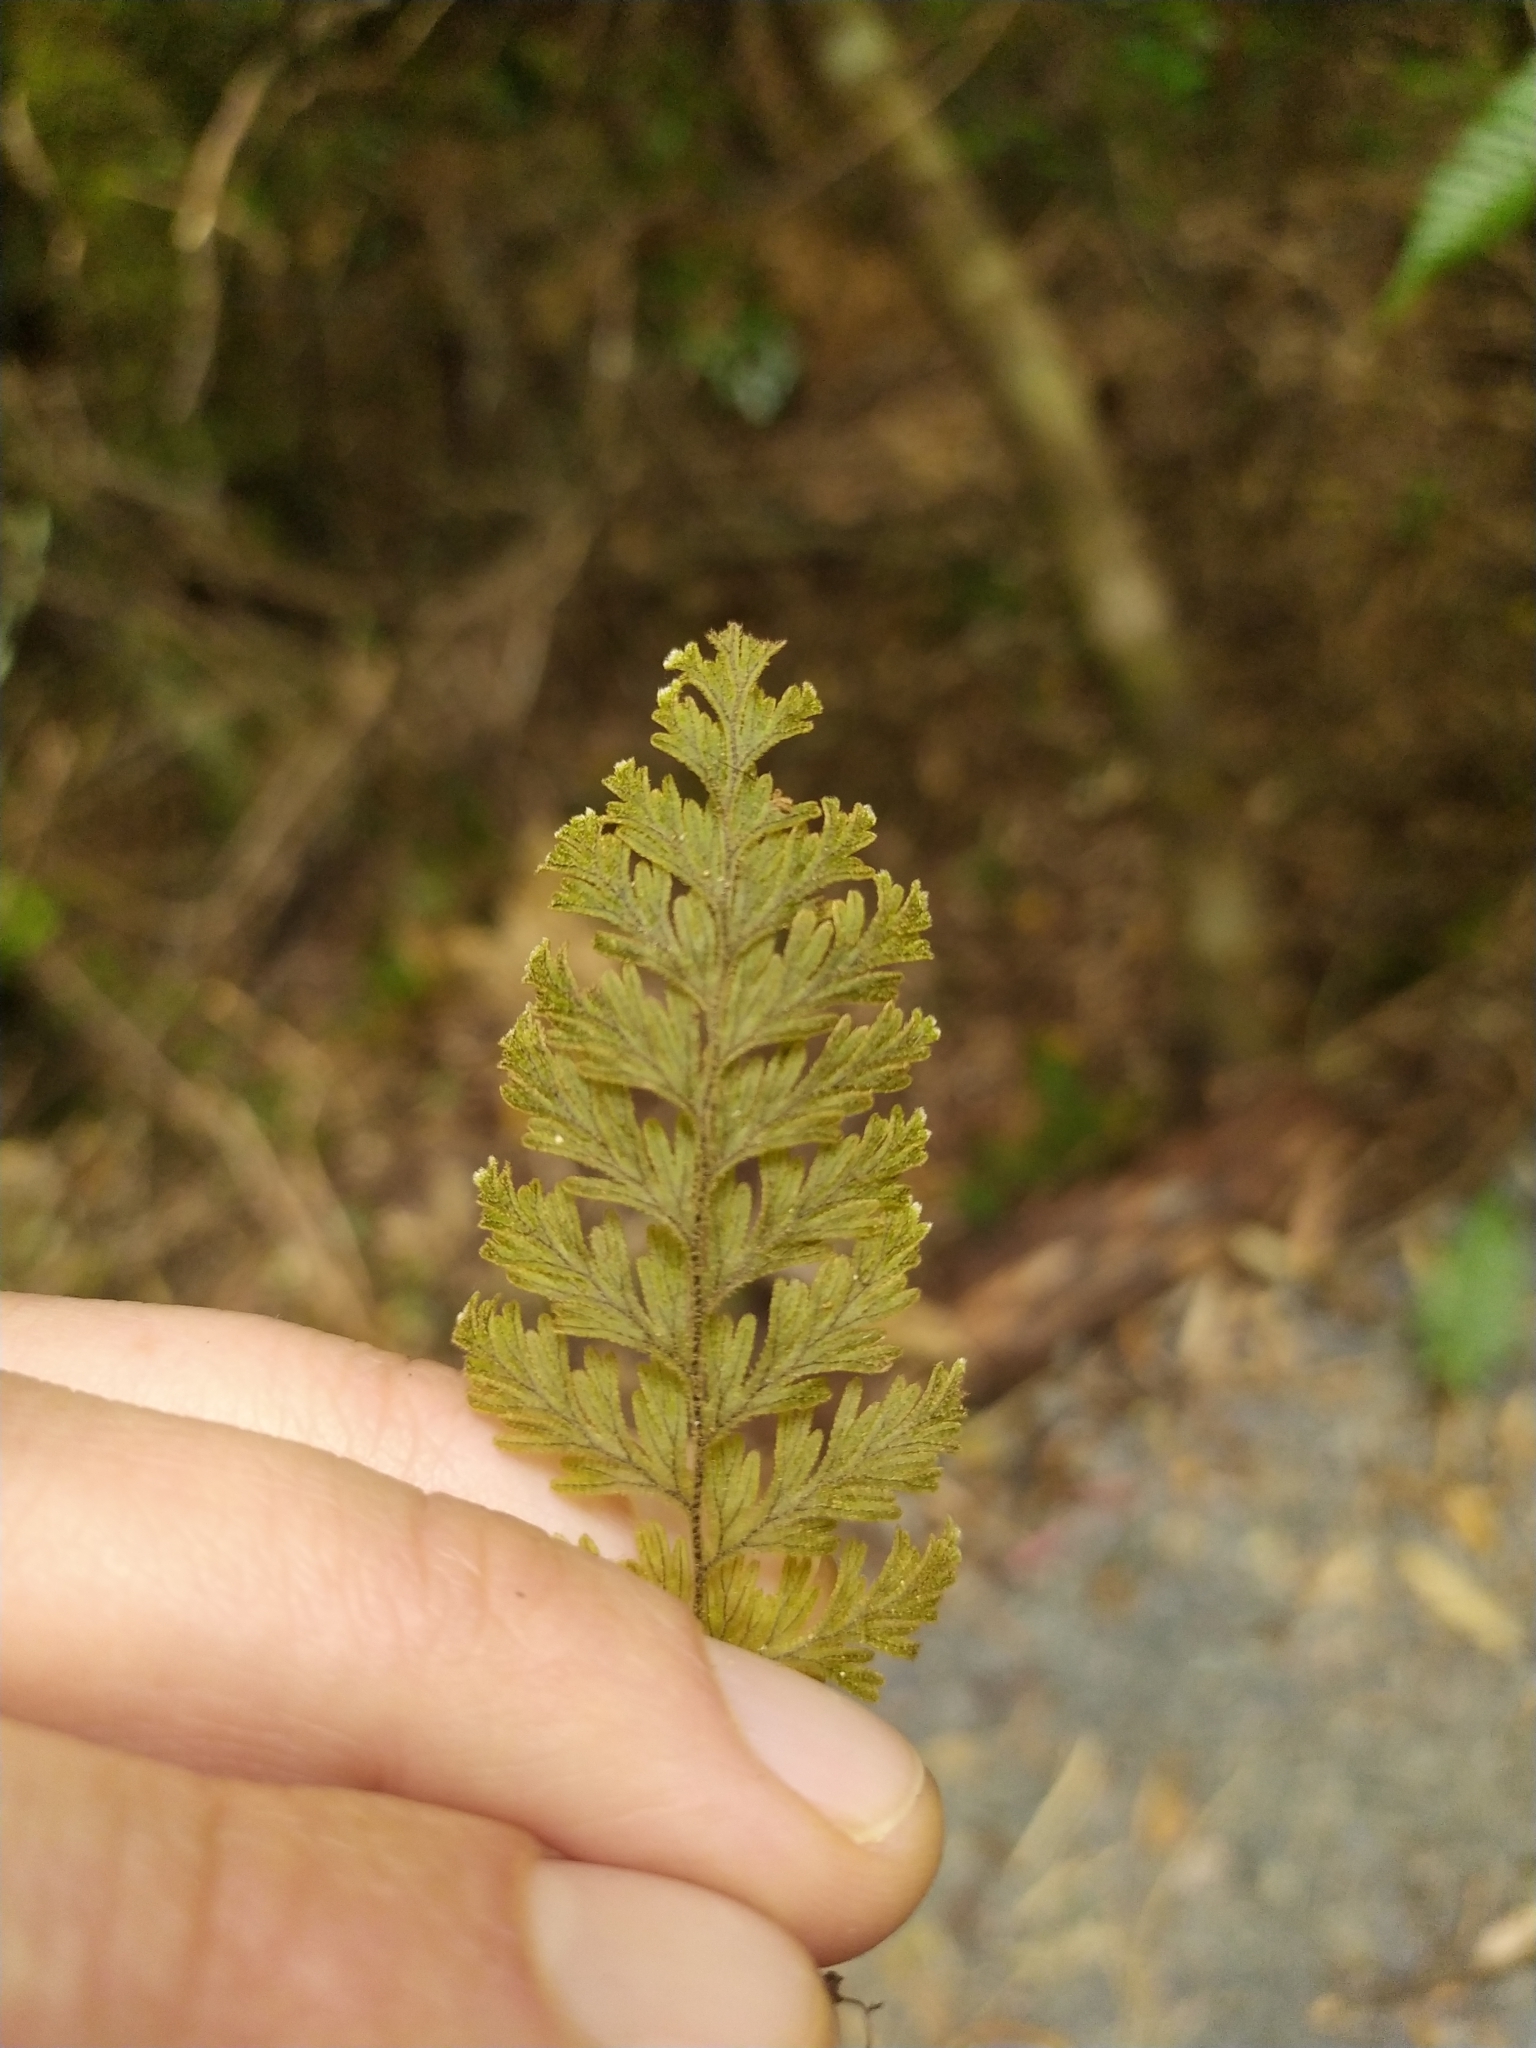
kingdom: Plantae
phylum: Tracheophyta
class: Polypodiopsida
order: Hymenophyllales
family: Hymenophyllaceae
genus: Hymenophyllum
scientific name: Hymenophyllum frankliniae
